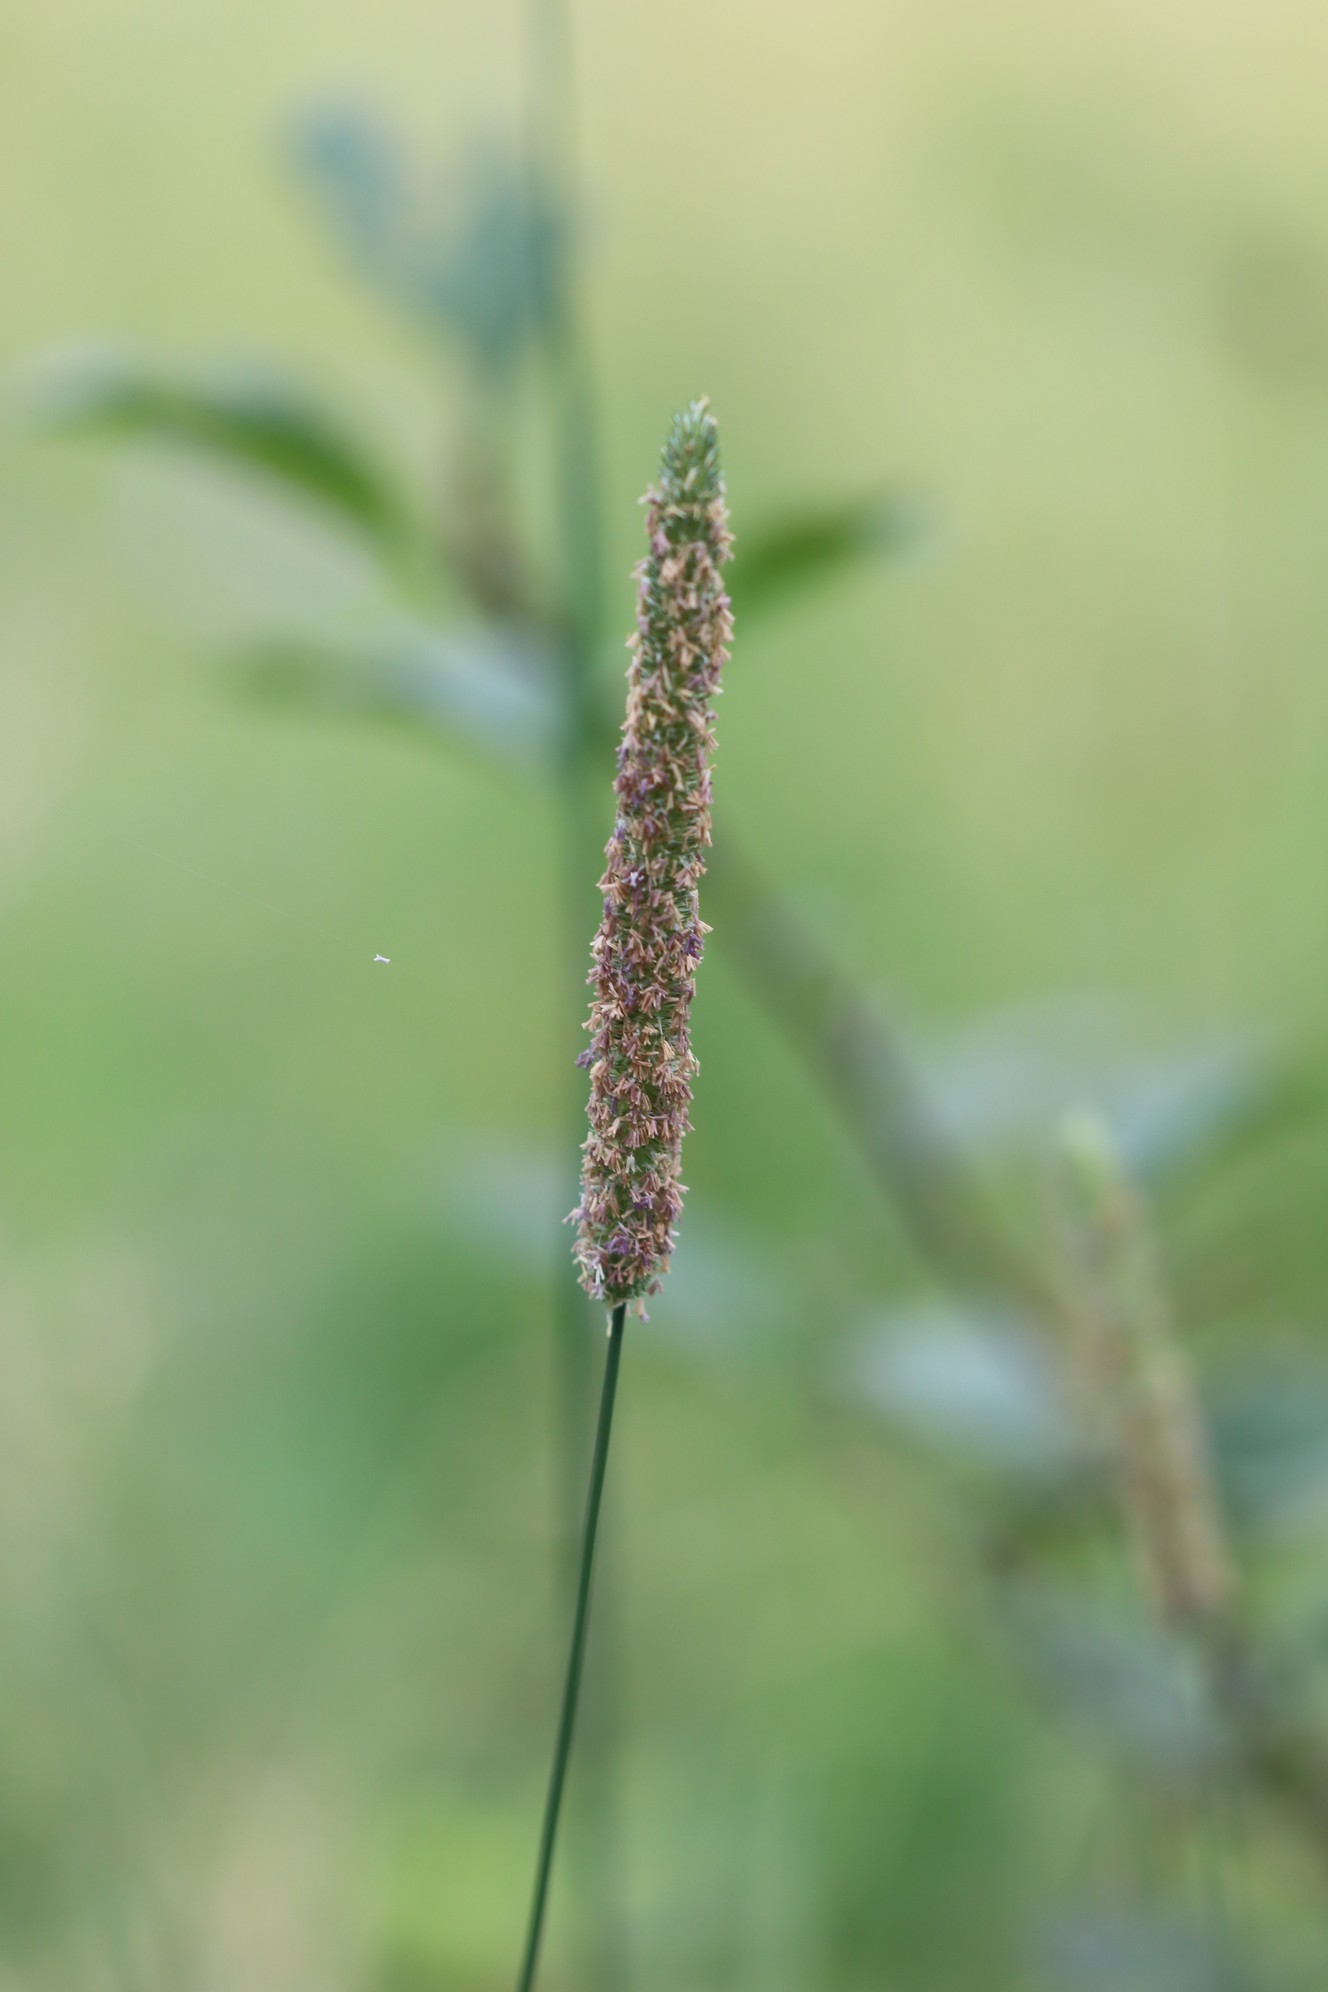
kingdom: Plantae
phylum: Tracheophyta
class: Liliopsida
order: Poales
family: Poaceae
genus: Phleum
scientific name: Phleum pratense
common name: Timothy grass
